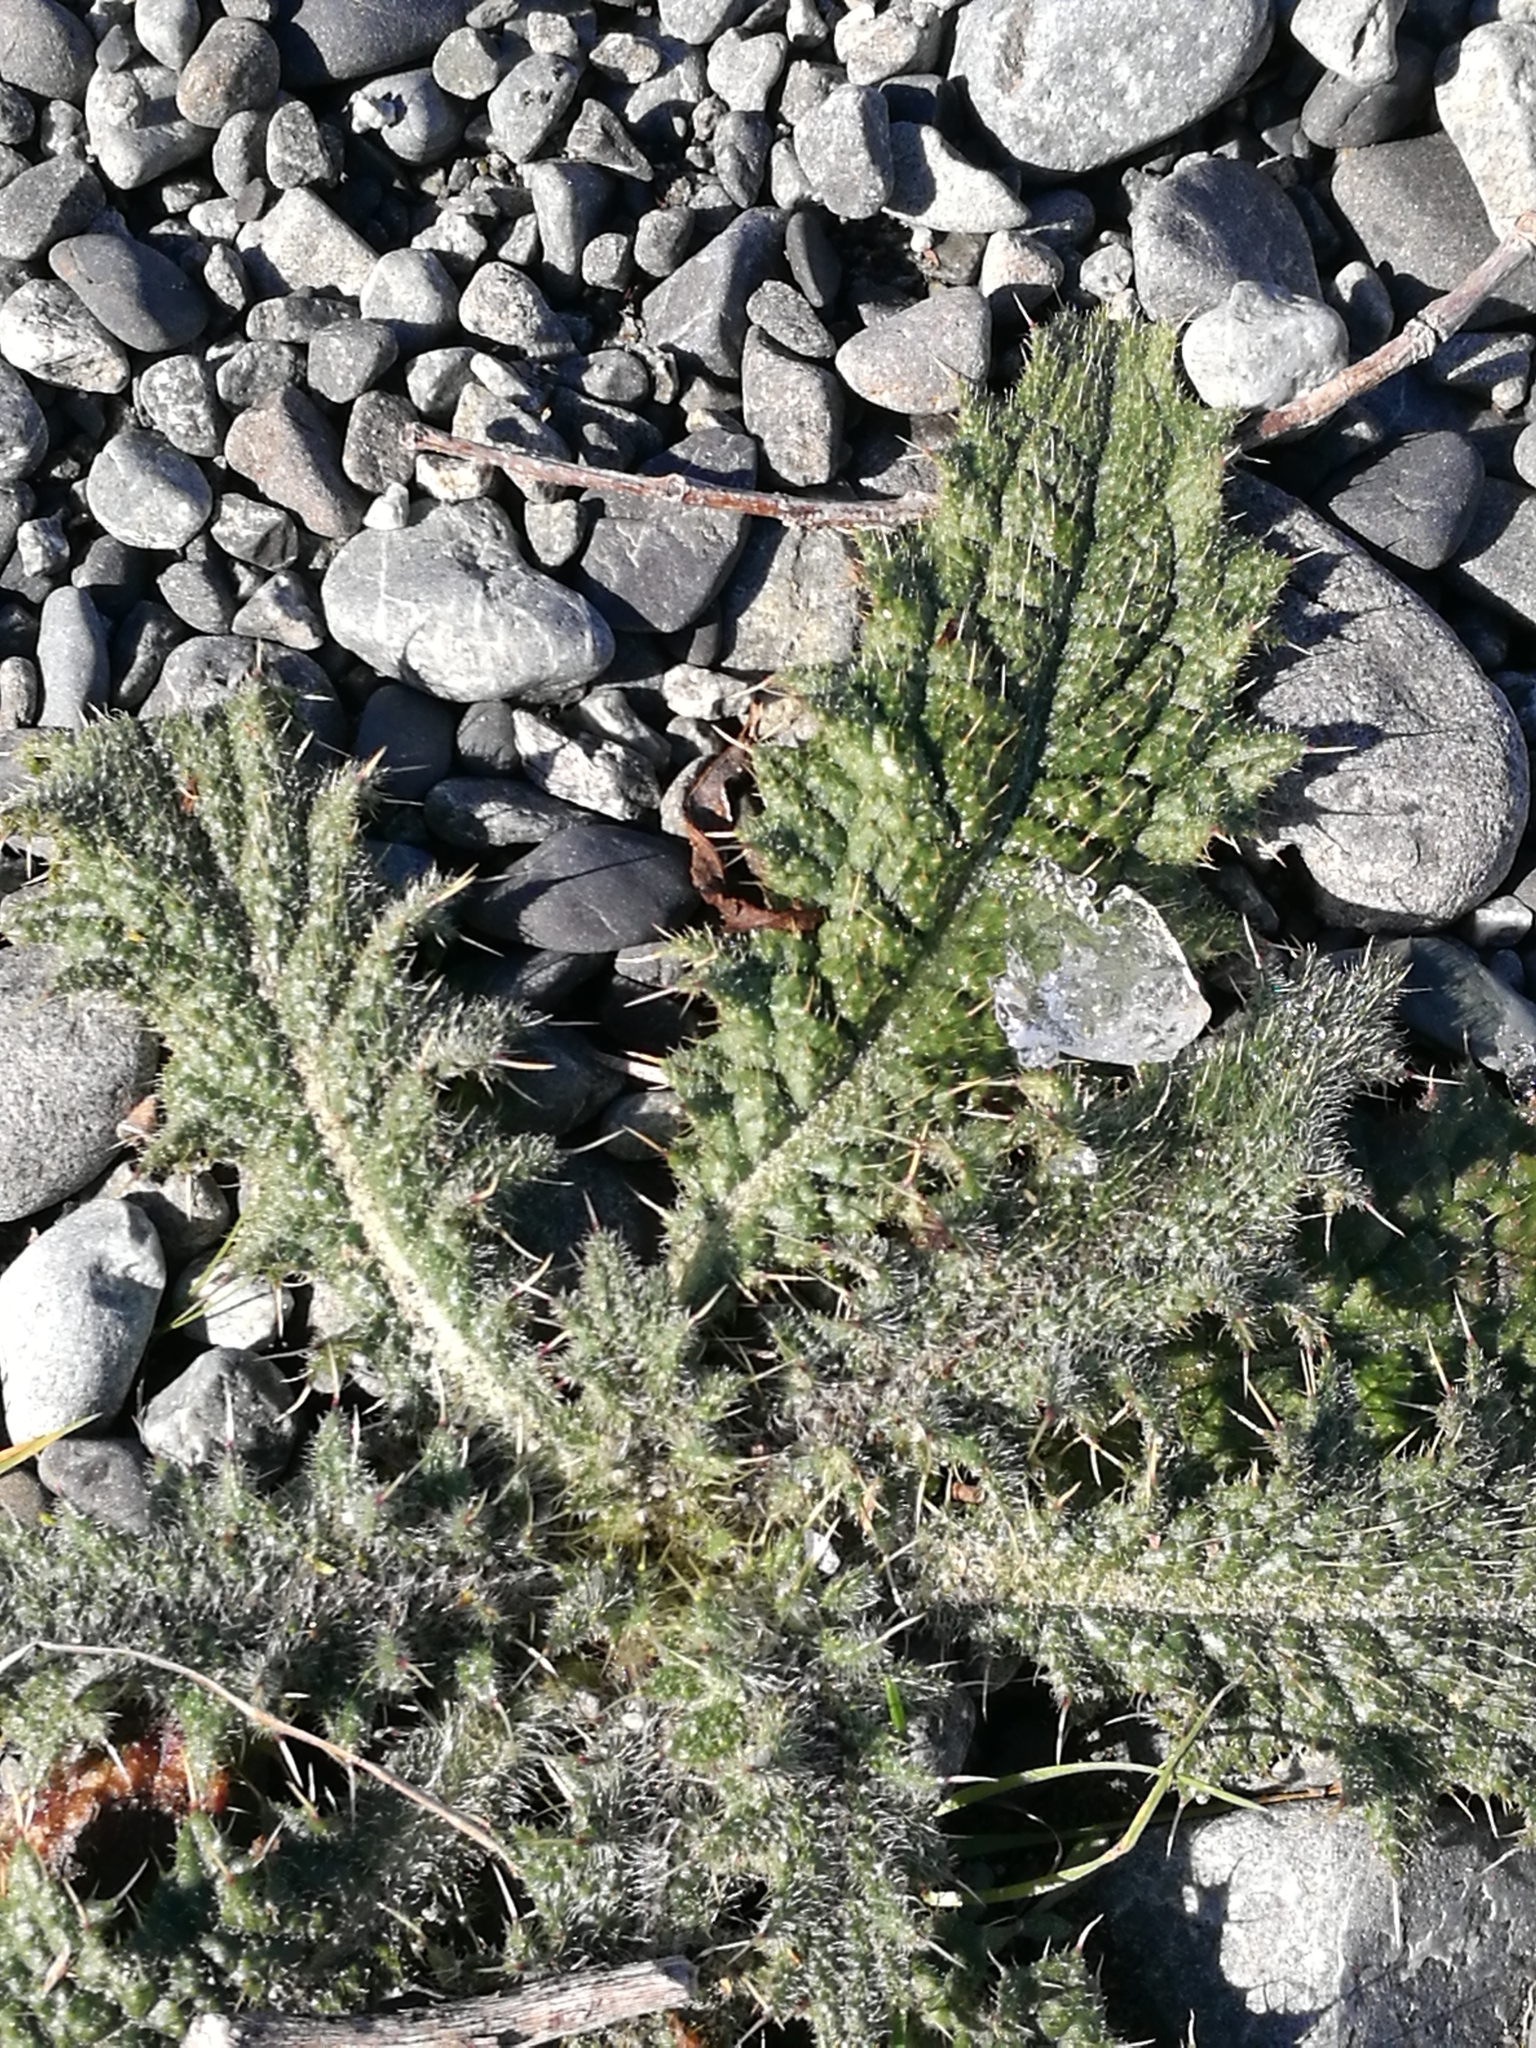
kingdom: Plantae
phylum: Tracheophyta
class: Magnoliopsida
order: Asterales
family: Asteraceae
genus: Cirsium
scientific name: Cirsium vulgare
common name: Bull thistle
